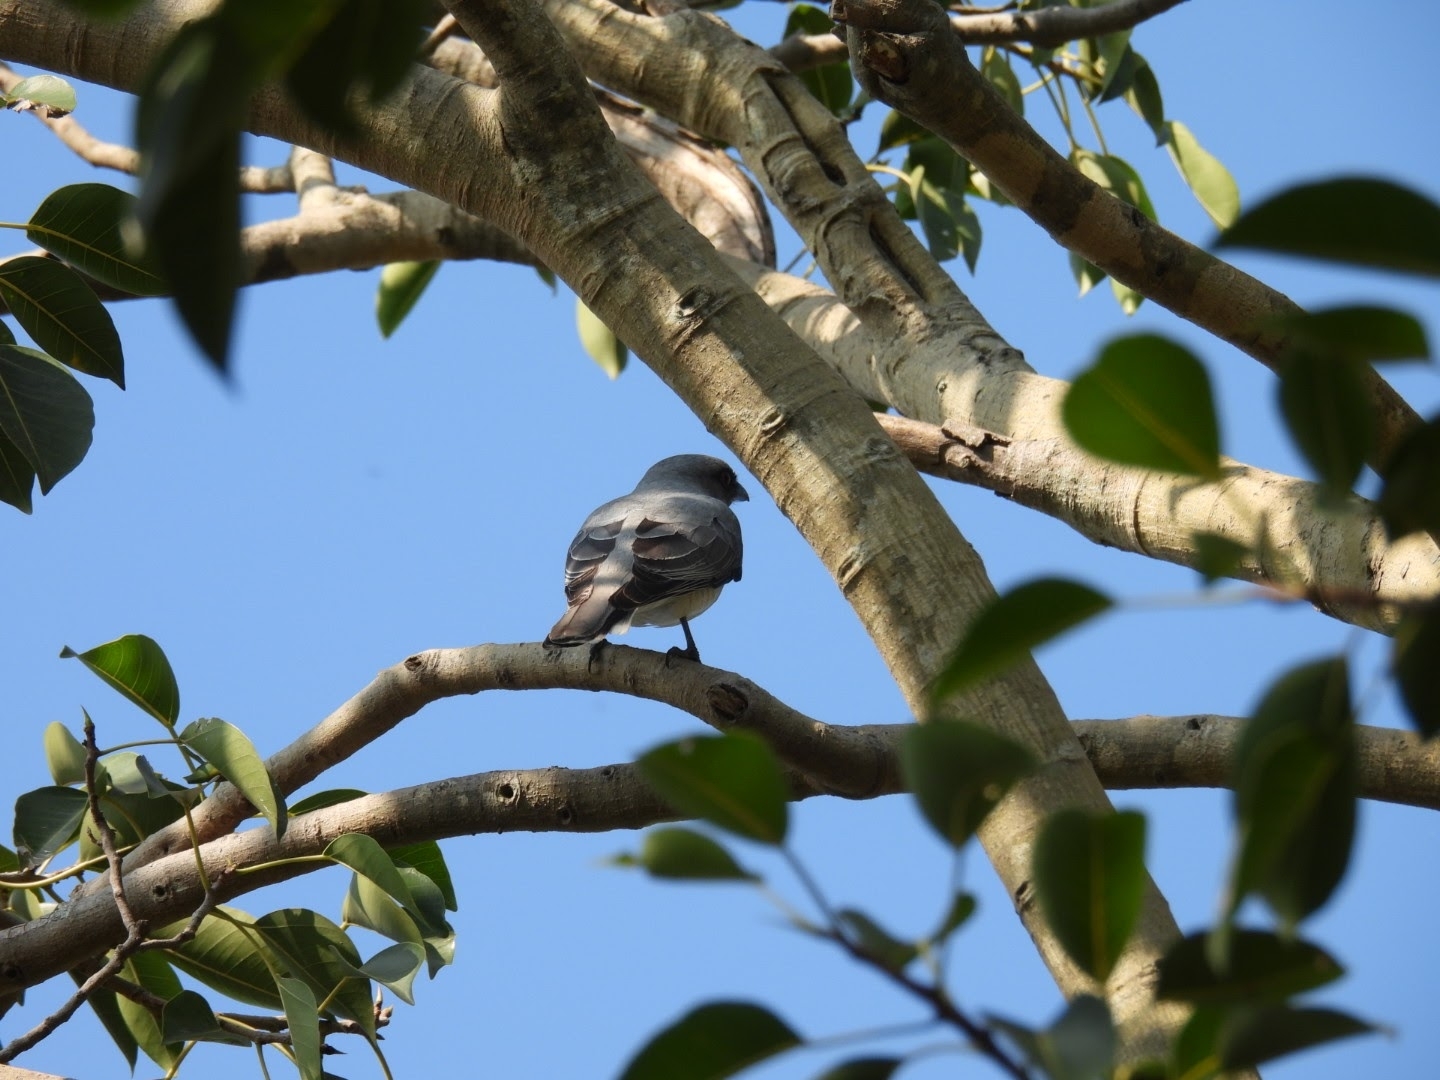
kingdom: Animalia
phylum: Chordata
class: Aves
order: Passeriformes
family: Campephagidae
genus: Coracina
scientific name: Coracina macei
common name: Large cuckooshrike
